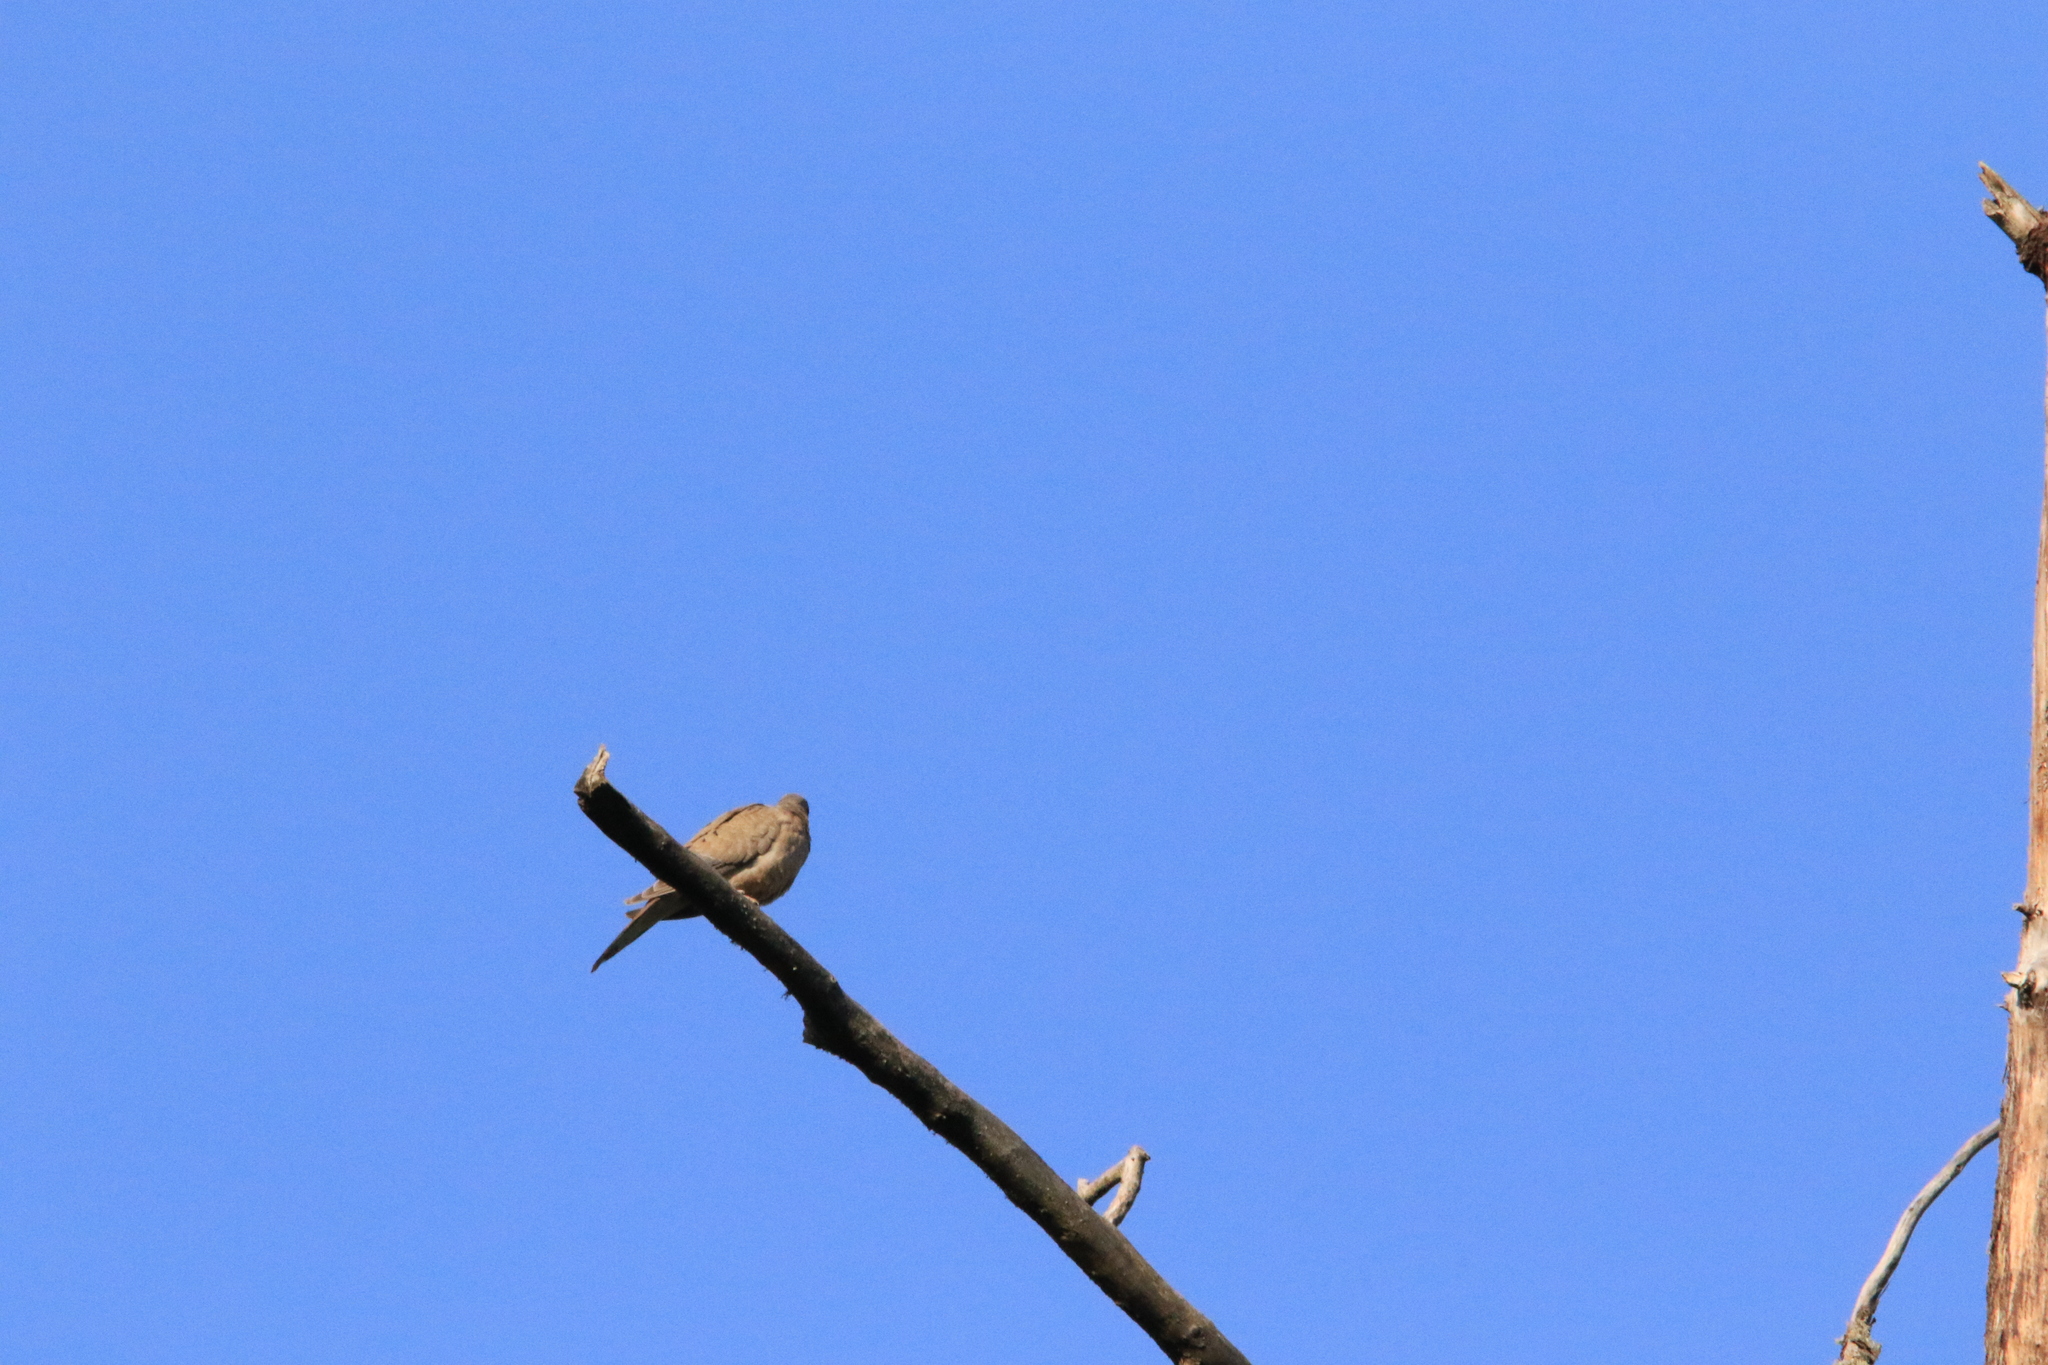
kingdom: Animalia
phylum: Chordata
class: Aves
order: Columbiformes
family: Columbidae
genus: Zenaida
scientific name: Zenaida macroura
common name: Mourning dove
